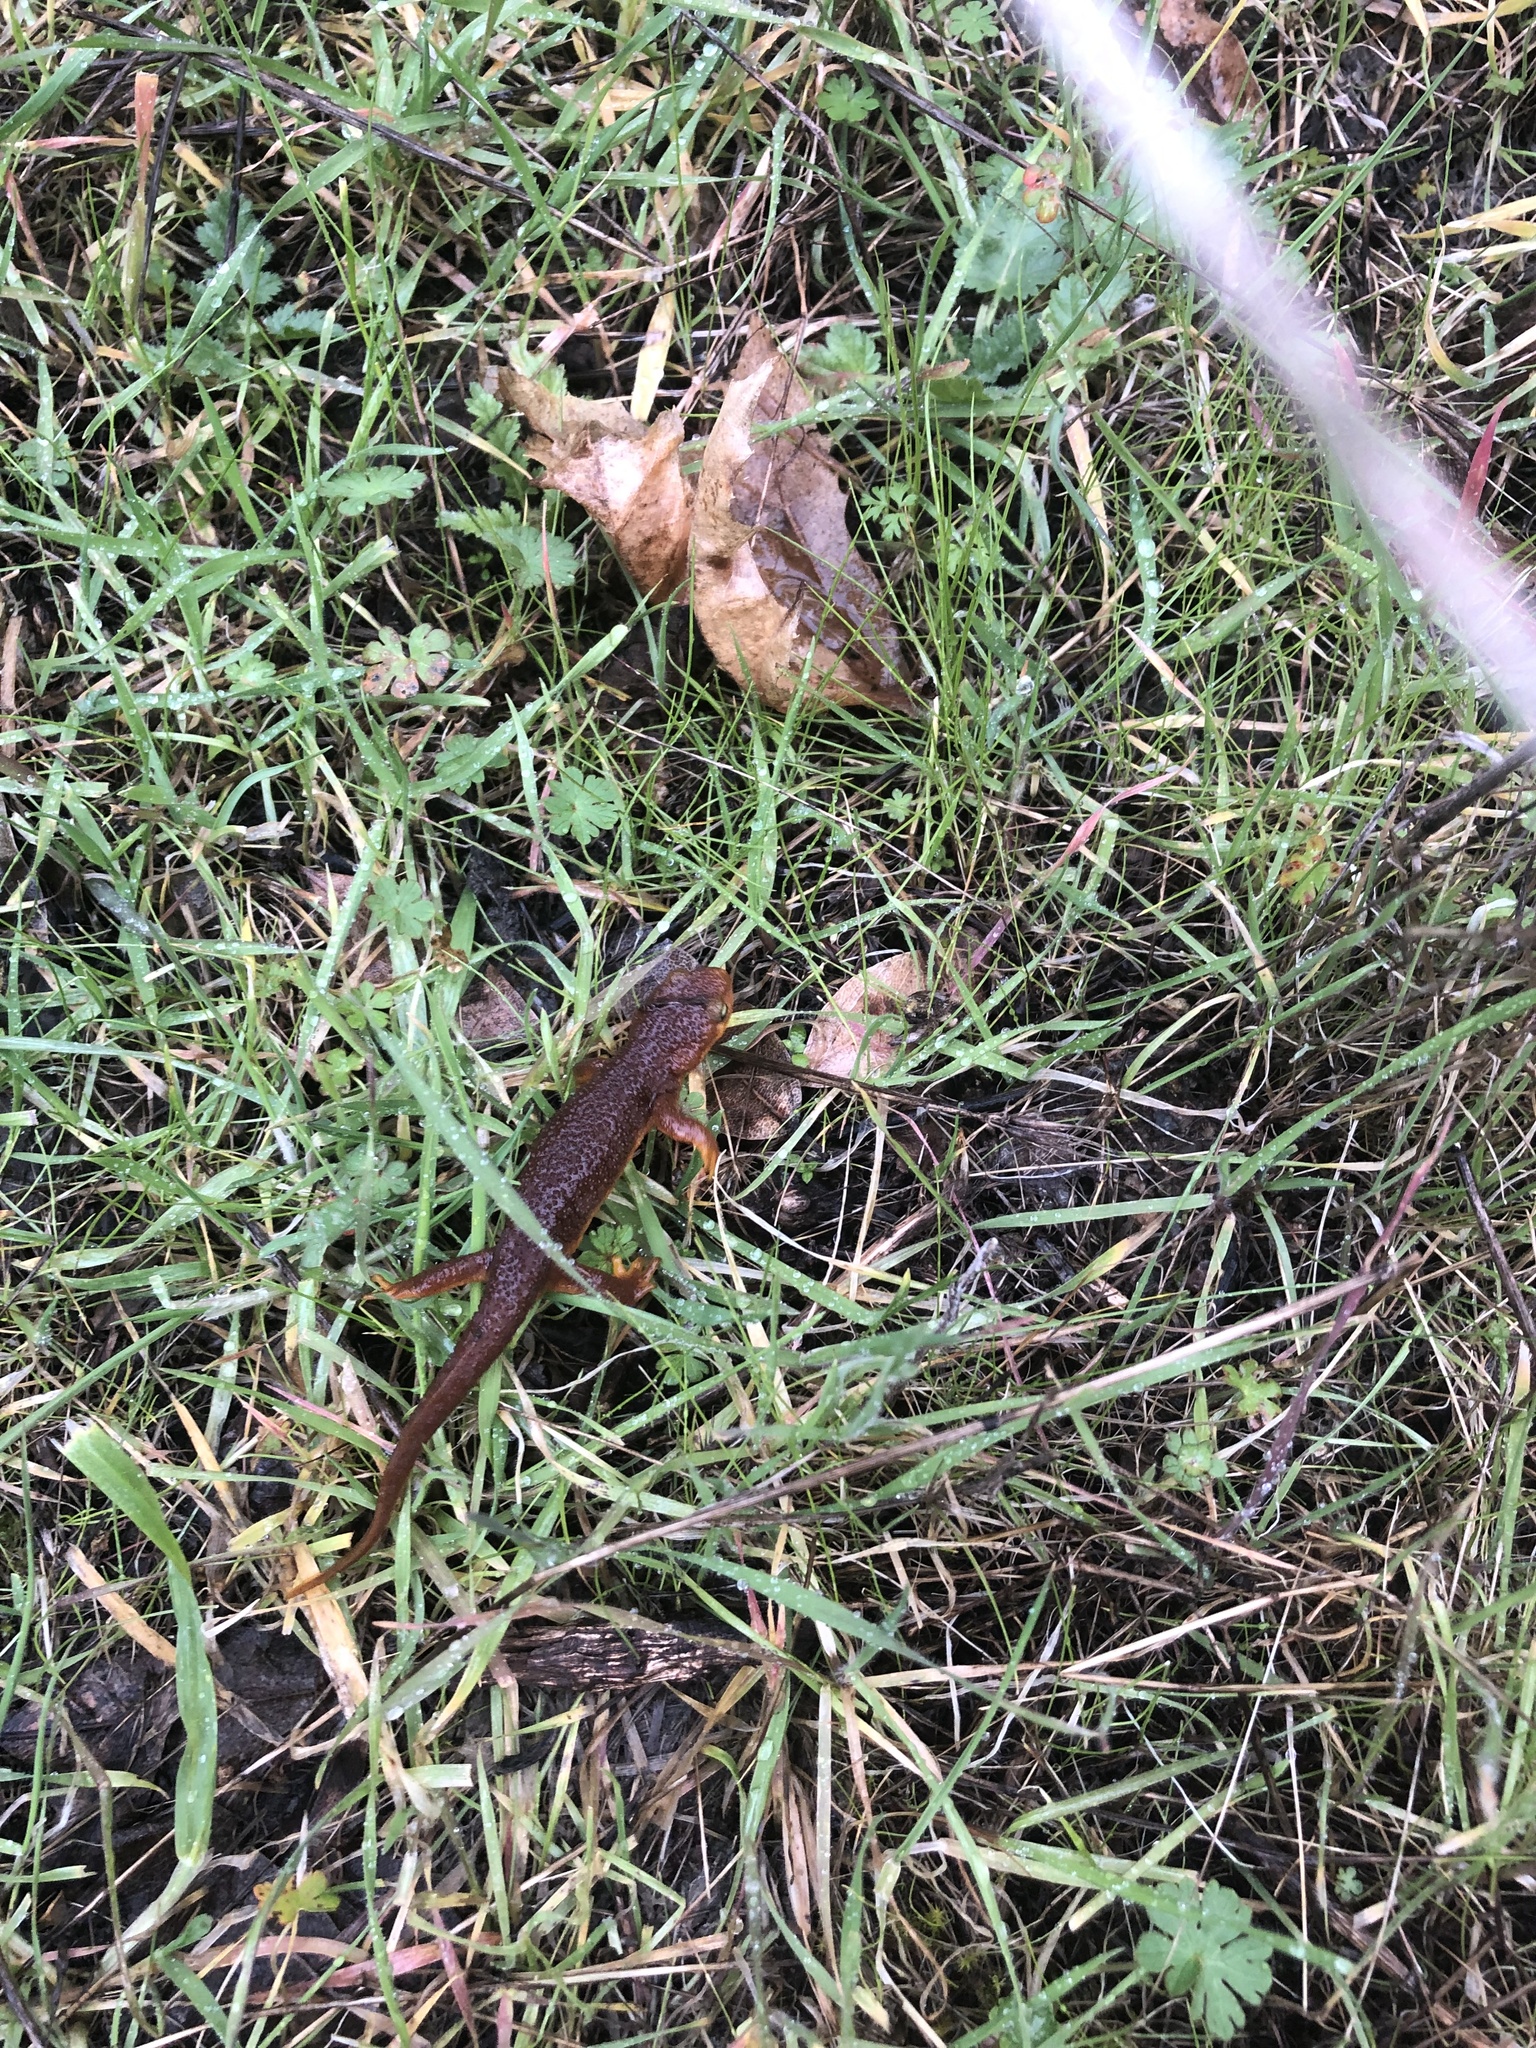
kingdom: Animalia
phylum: Chordata
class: Amphibia
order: Caudata
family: Salamandridae
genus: Taricha
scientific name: Taricha torosa
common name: California newt
